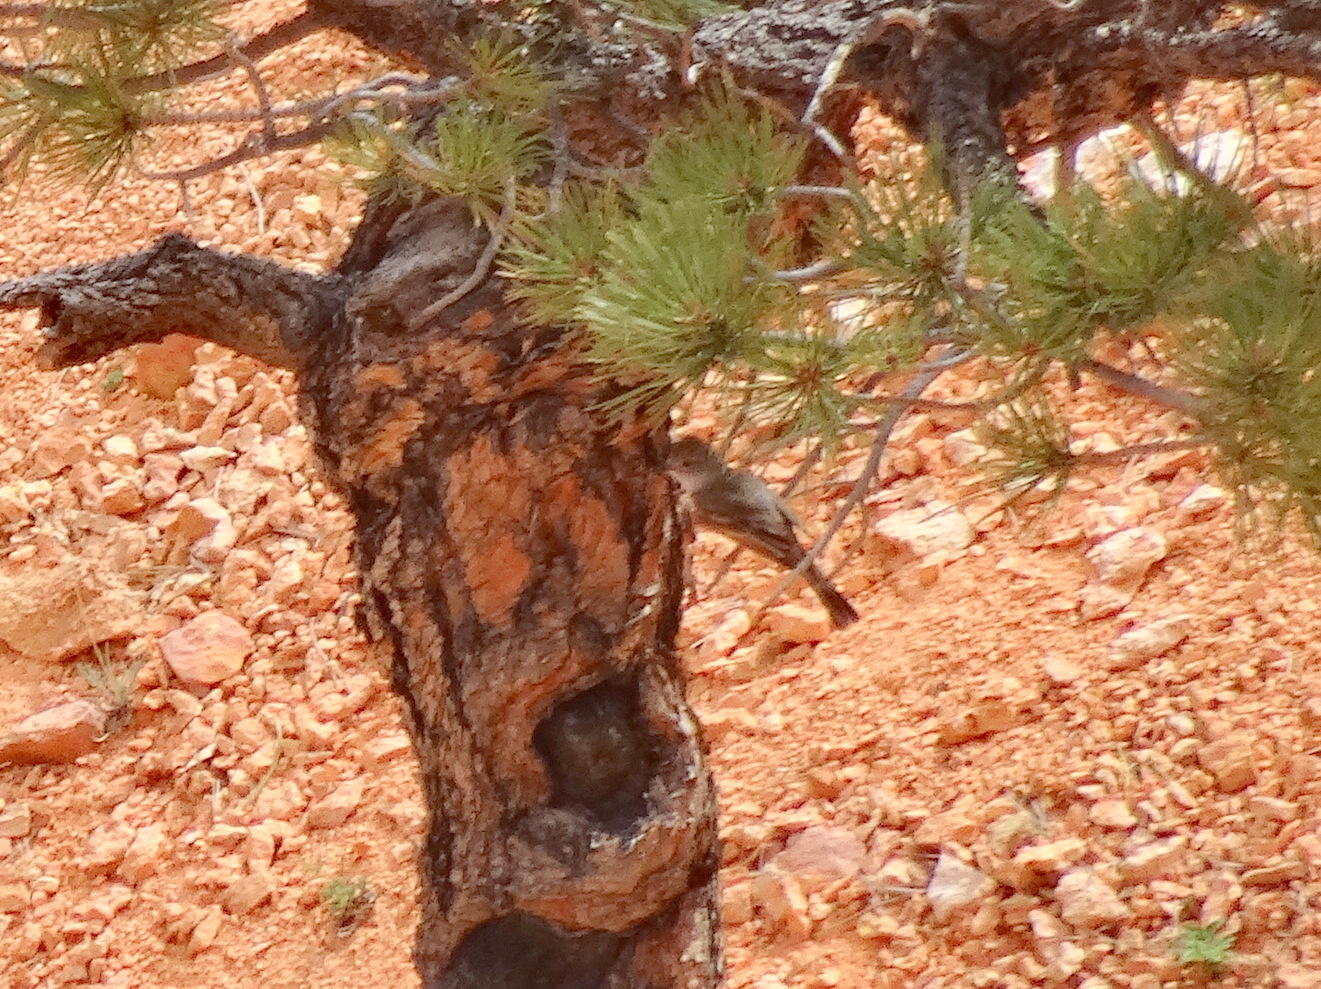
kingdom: Animalia
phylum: Chordata
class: Aves
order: Passeriformes
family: Tyrannidae
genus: Myiarchus
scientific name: Myiarchus cinerascens
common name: Ash-throated flycatcher
